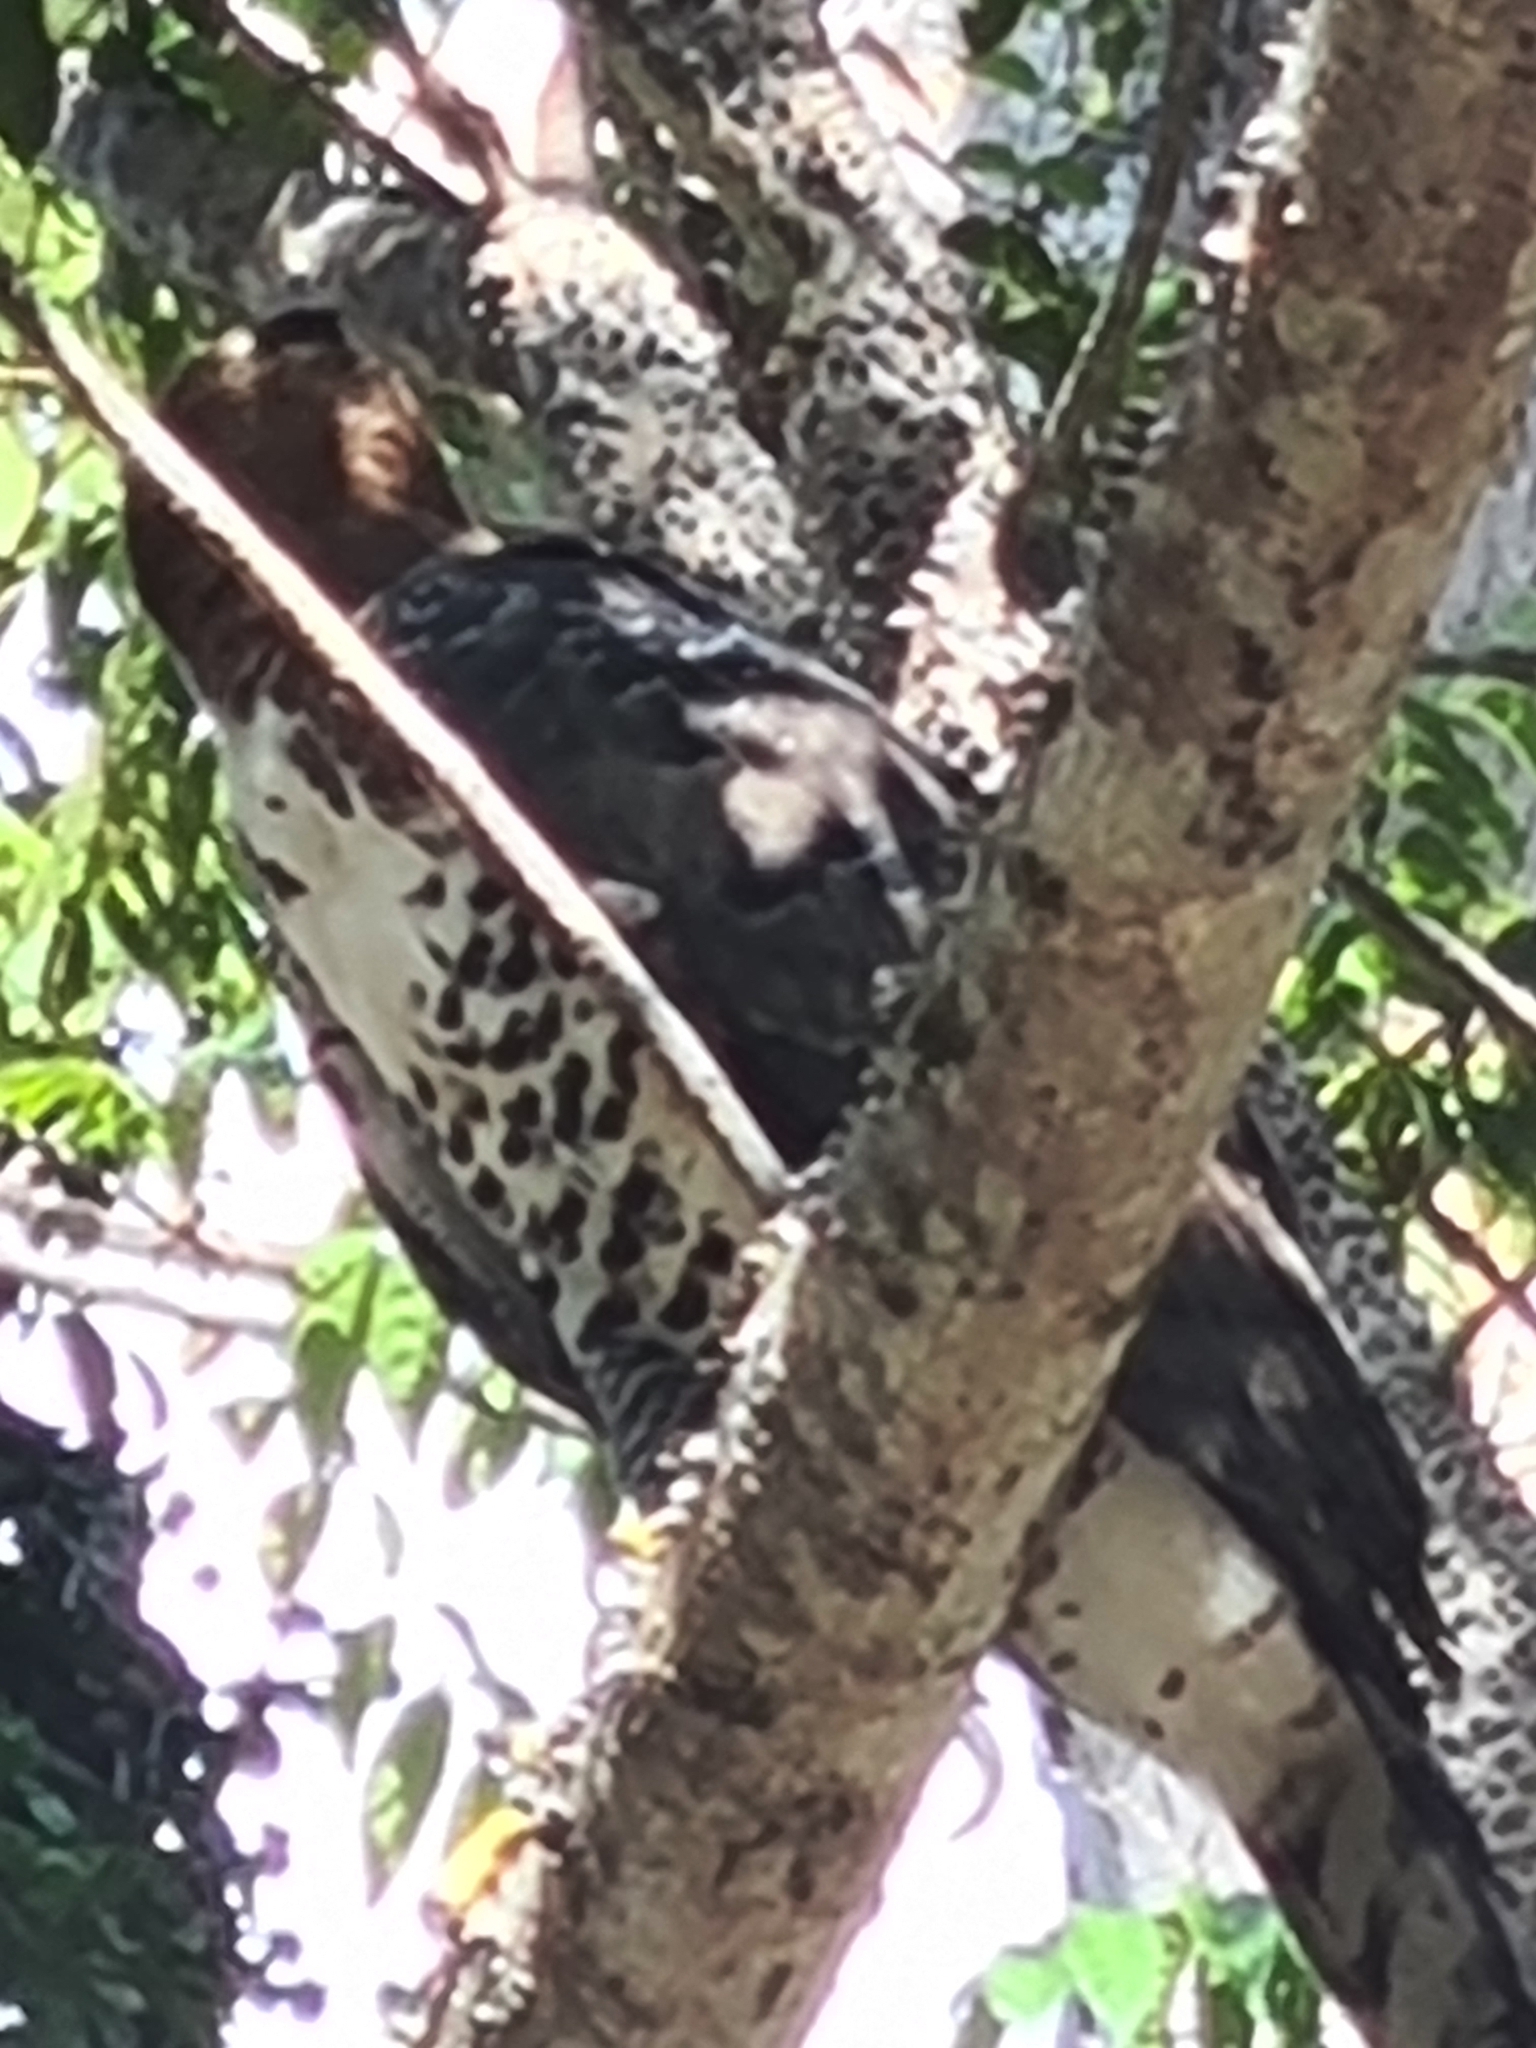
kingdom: Animalia
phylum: Chordata
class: Aves
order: Accipitriformes
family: Accipitridae
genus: Spizaetus
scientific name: Spizaetus ornatus
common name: Ornate hawk-eagle
